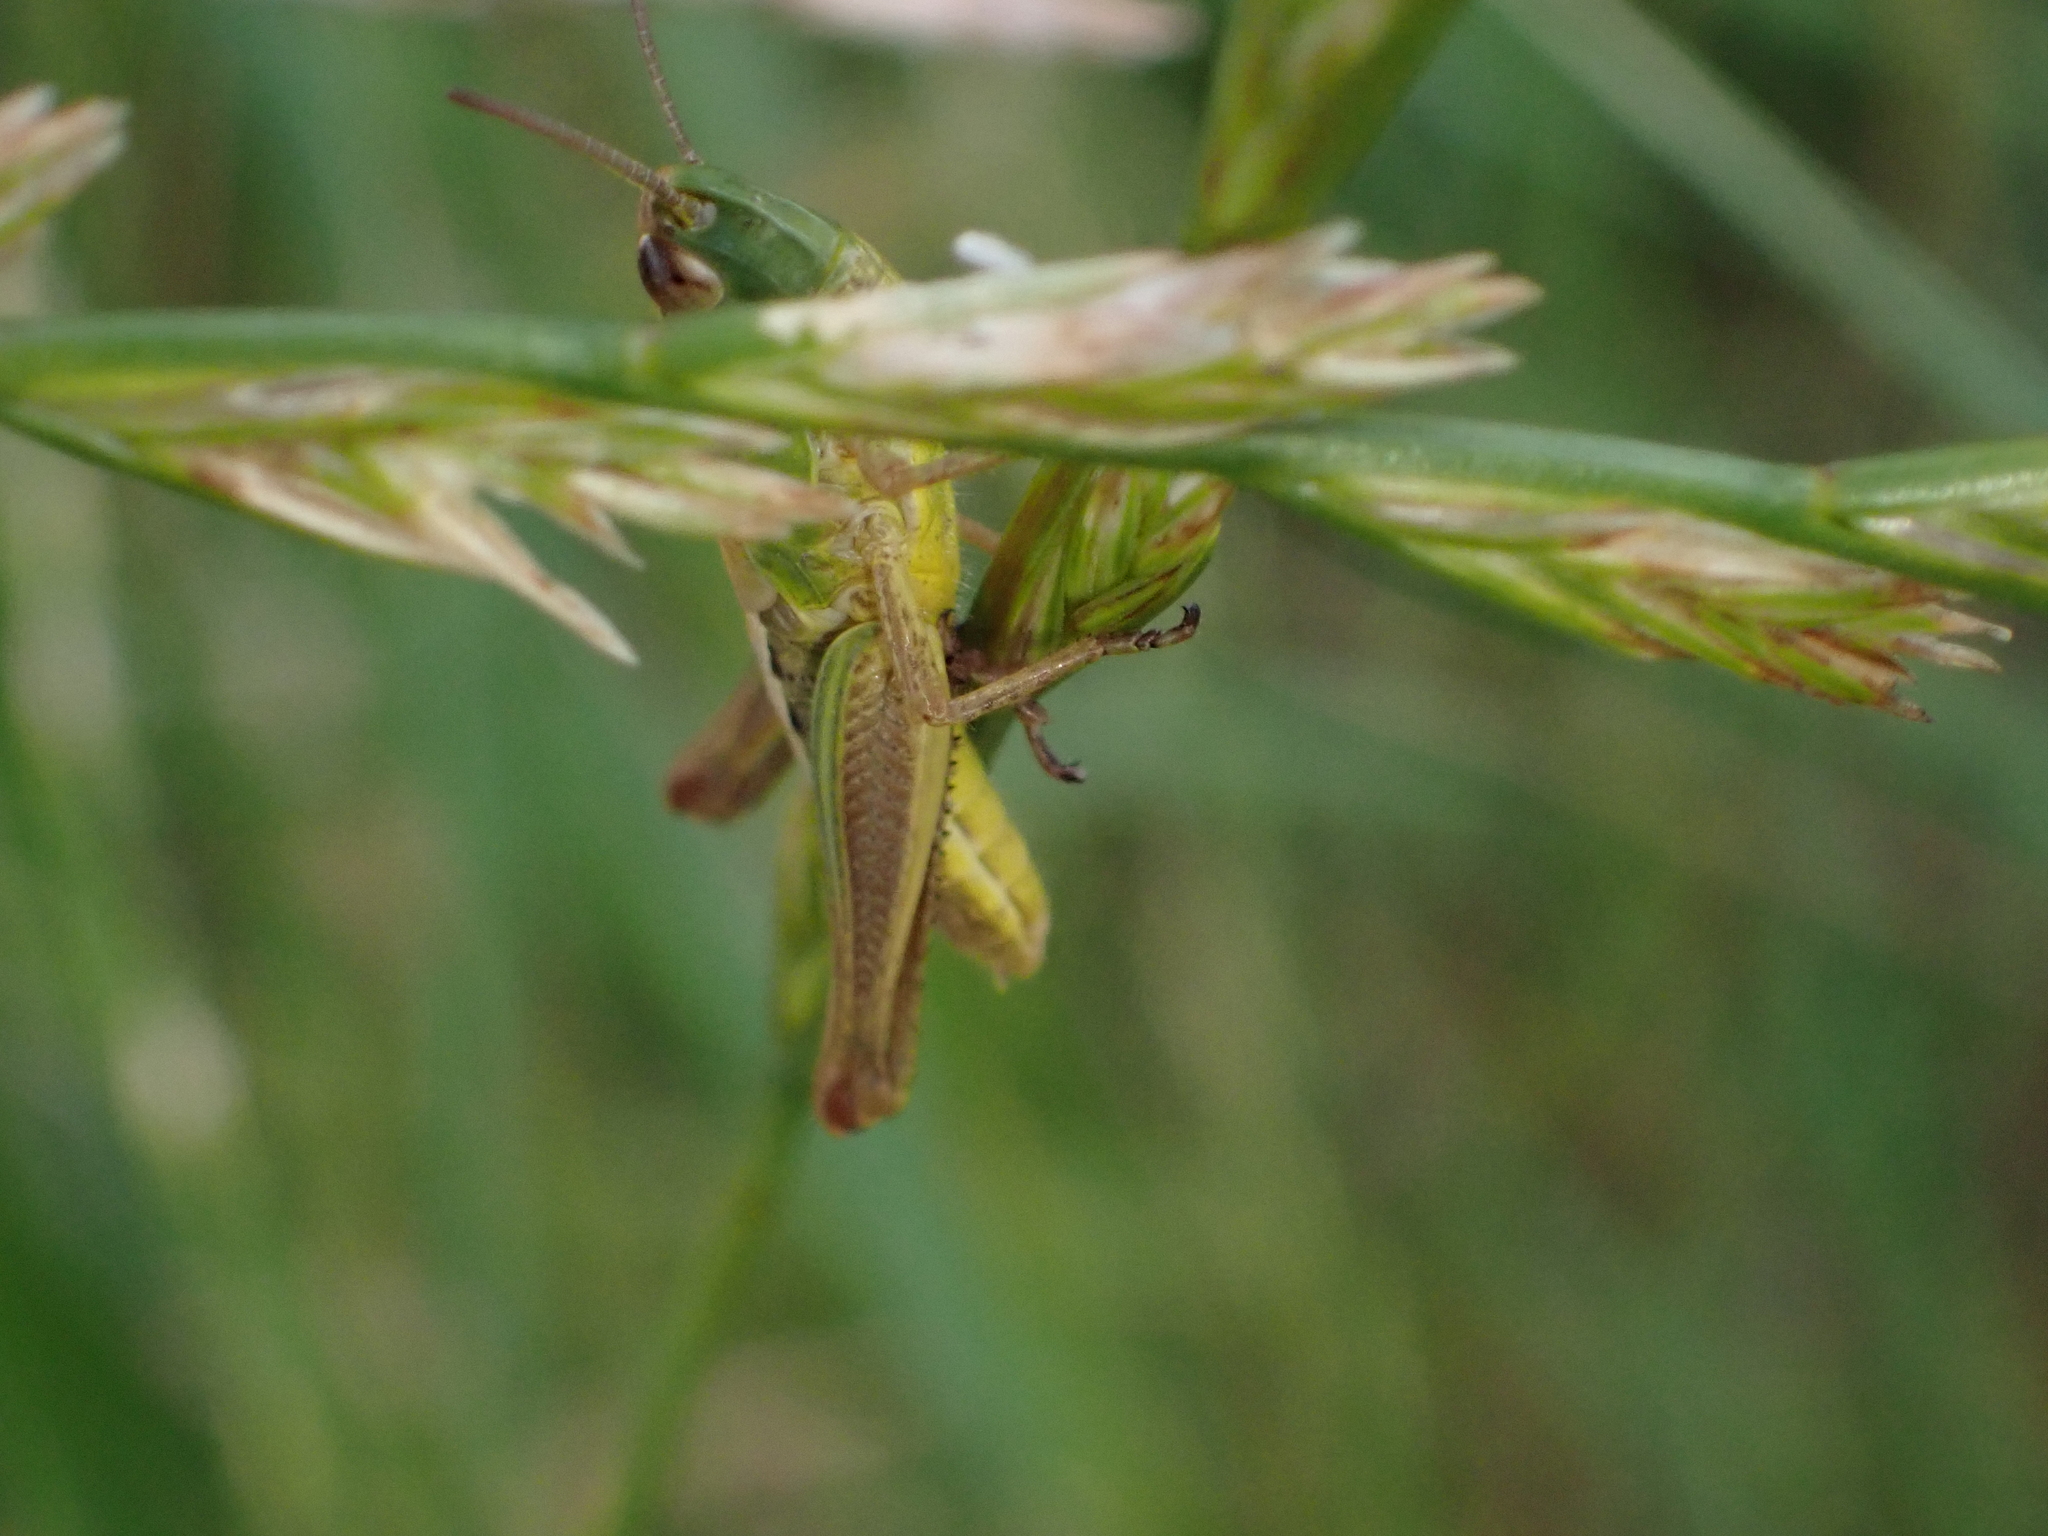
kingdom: Animalia
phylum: Arthropoda
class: Insecta
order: Orthoptera
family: Acrididae
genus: Pseudochorthippus
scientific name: Pseudochorthippus parallelus
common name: Meadow grasshopper
